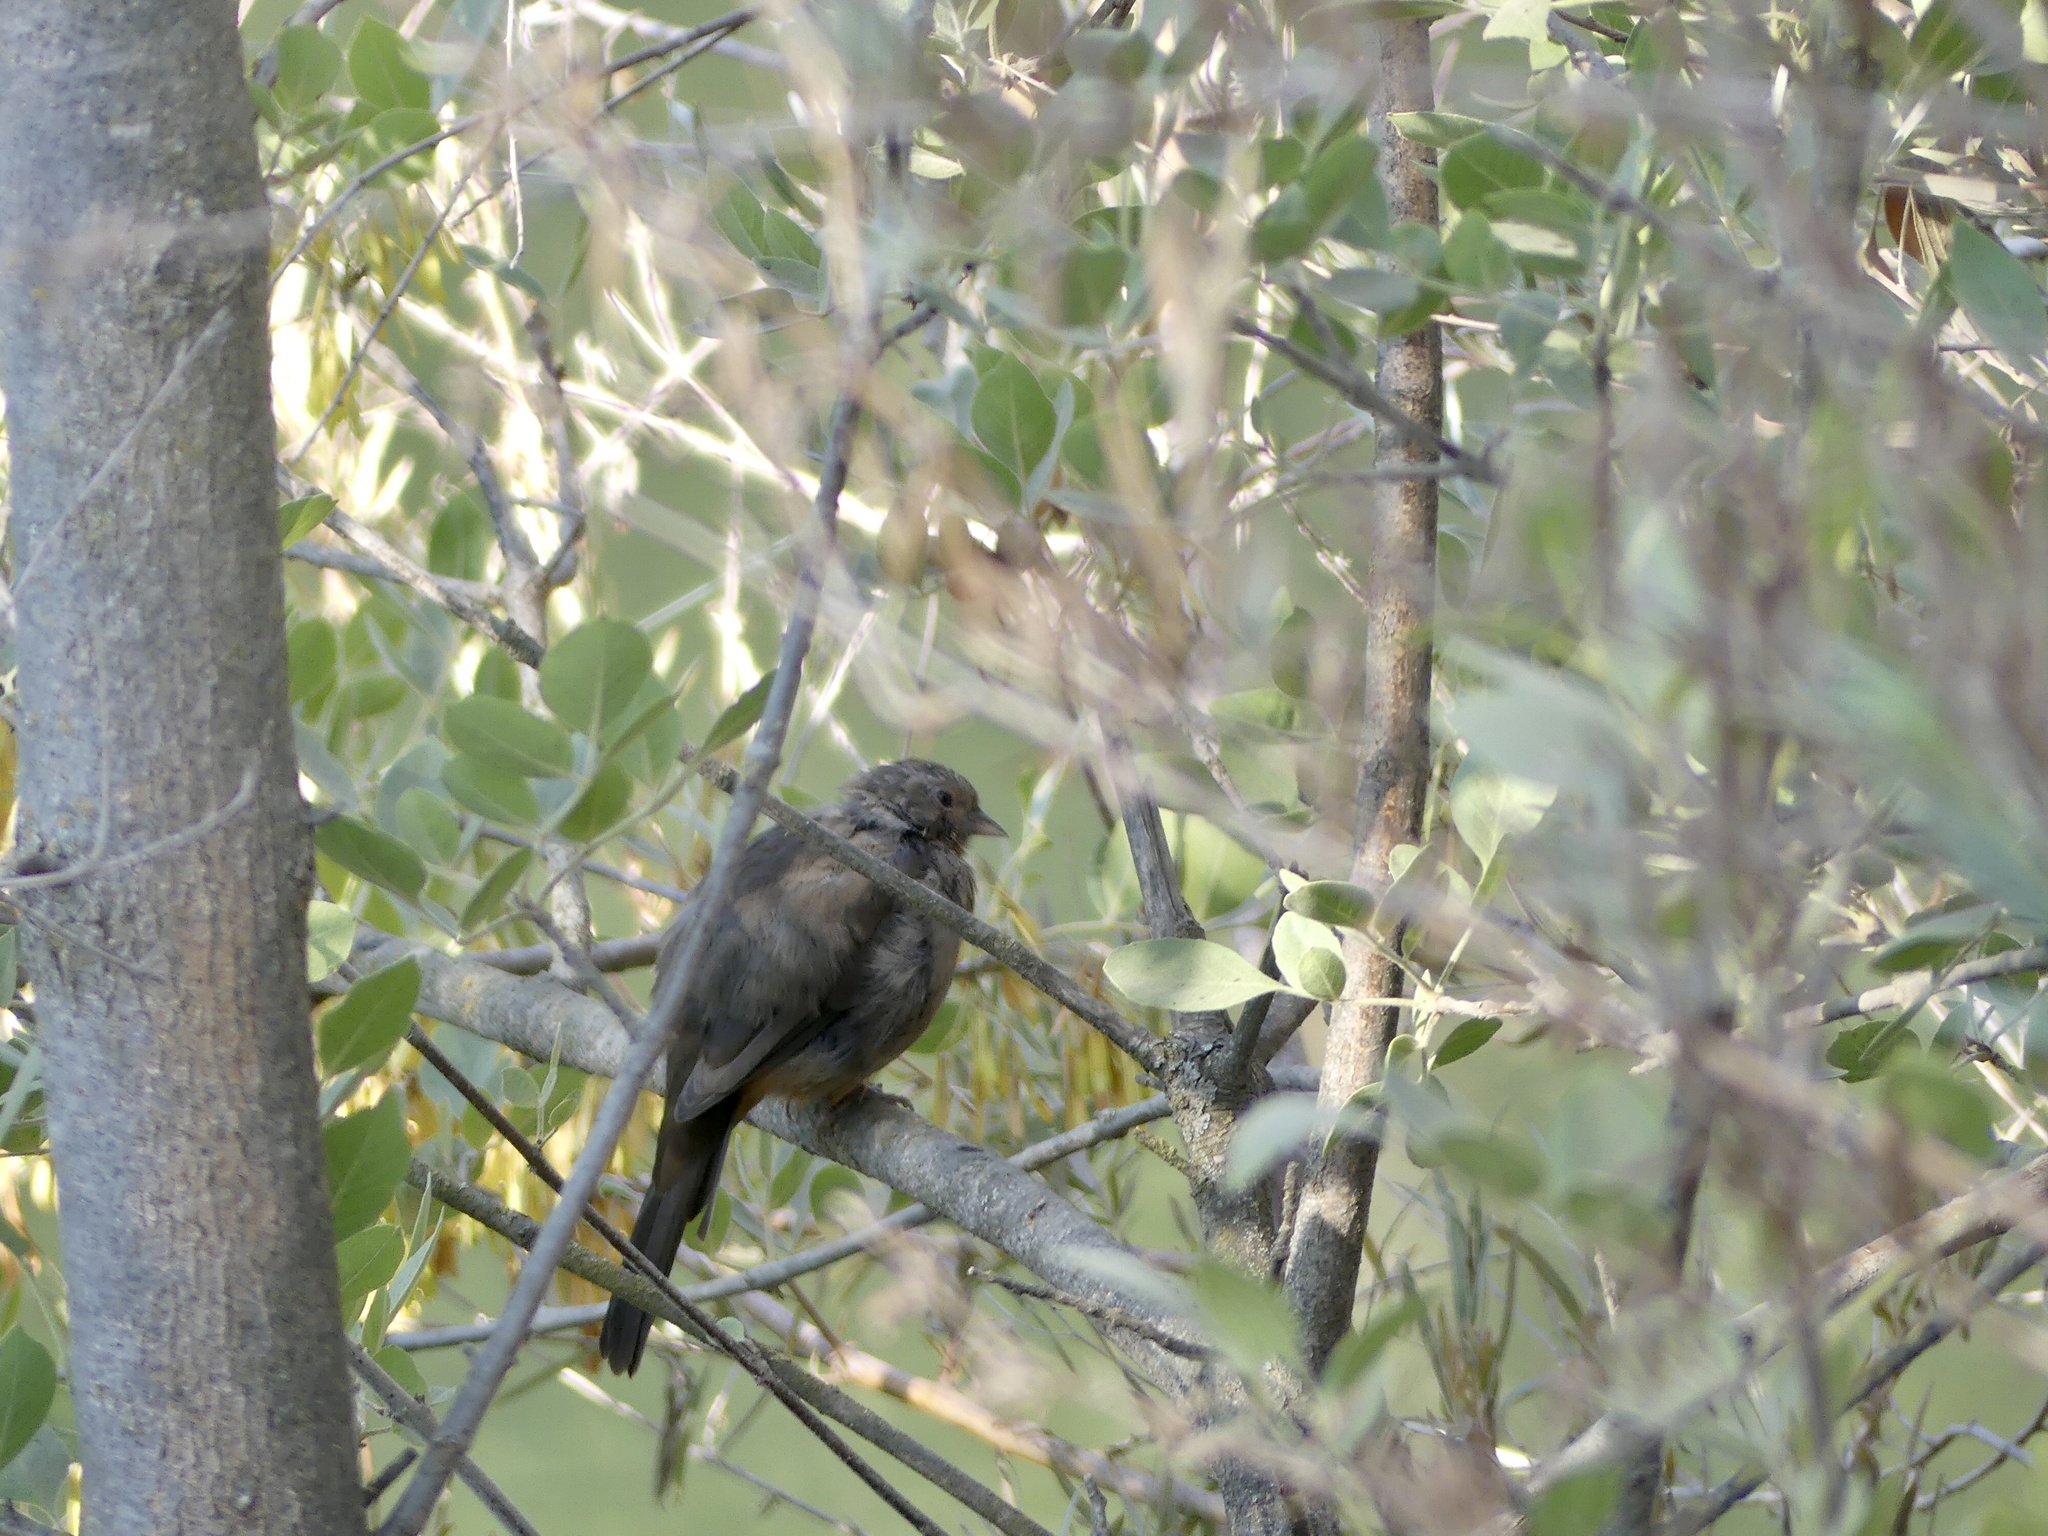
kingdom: Animalia
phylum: Chordata
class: Aves
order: Passeriformes
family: Passerellidae
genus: Melozone
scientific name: Melozone crissalis
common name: California towhee
